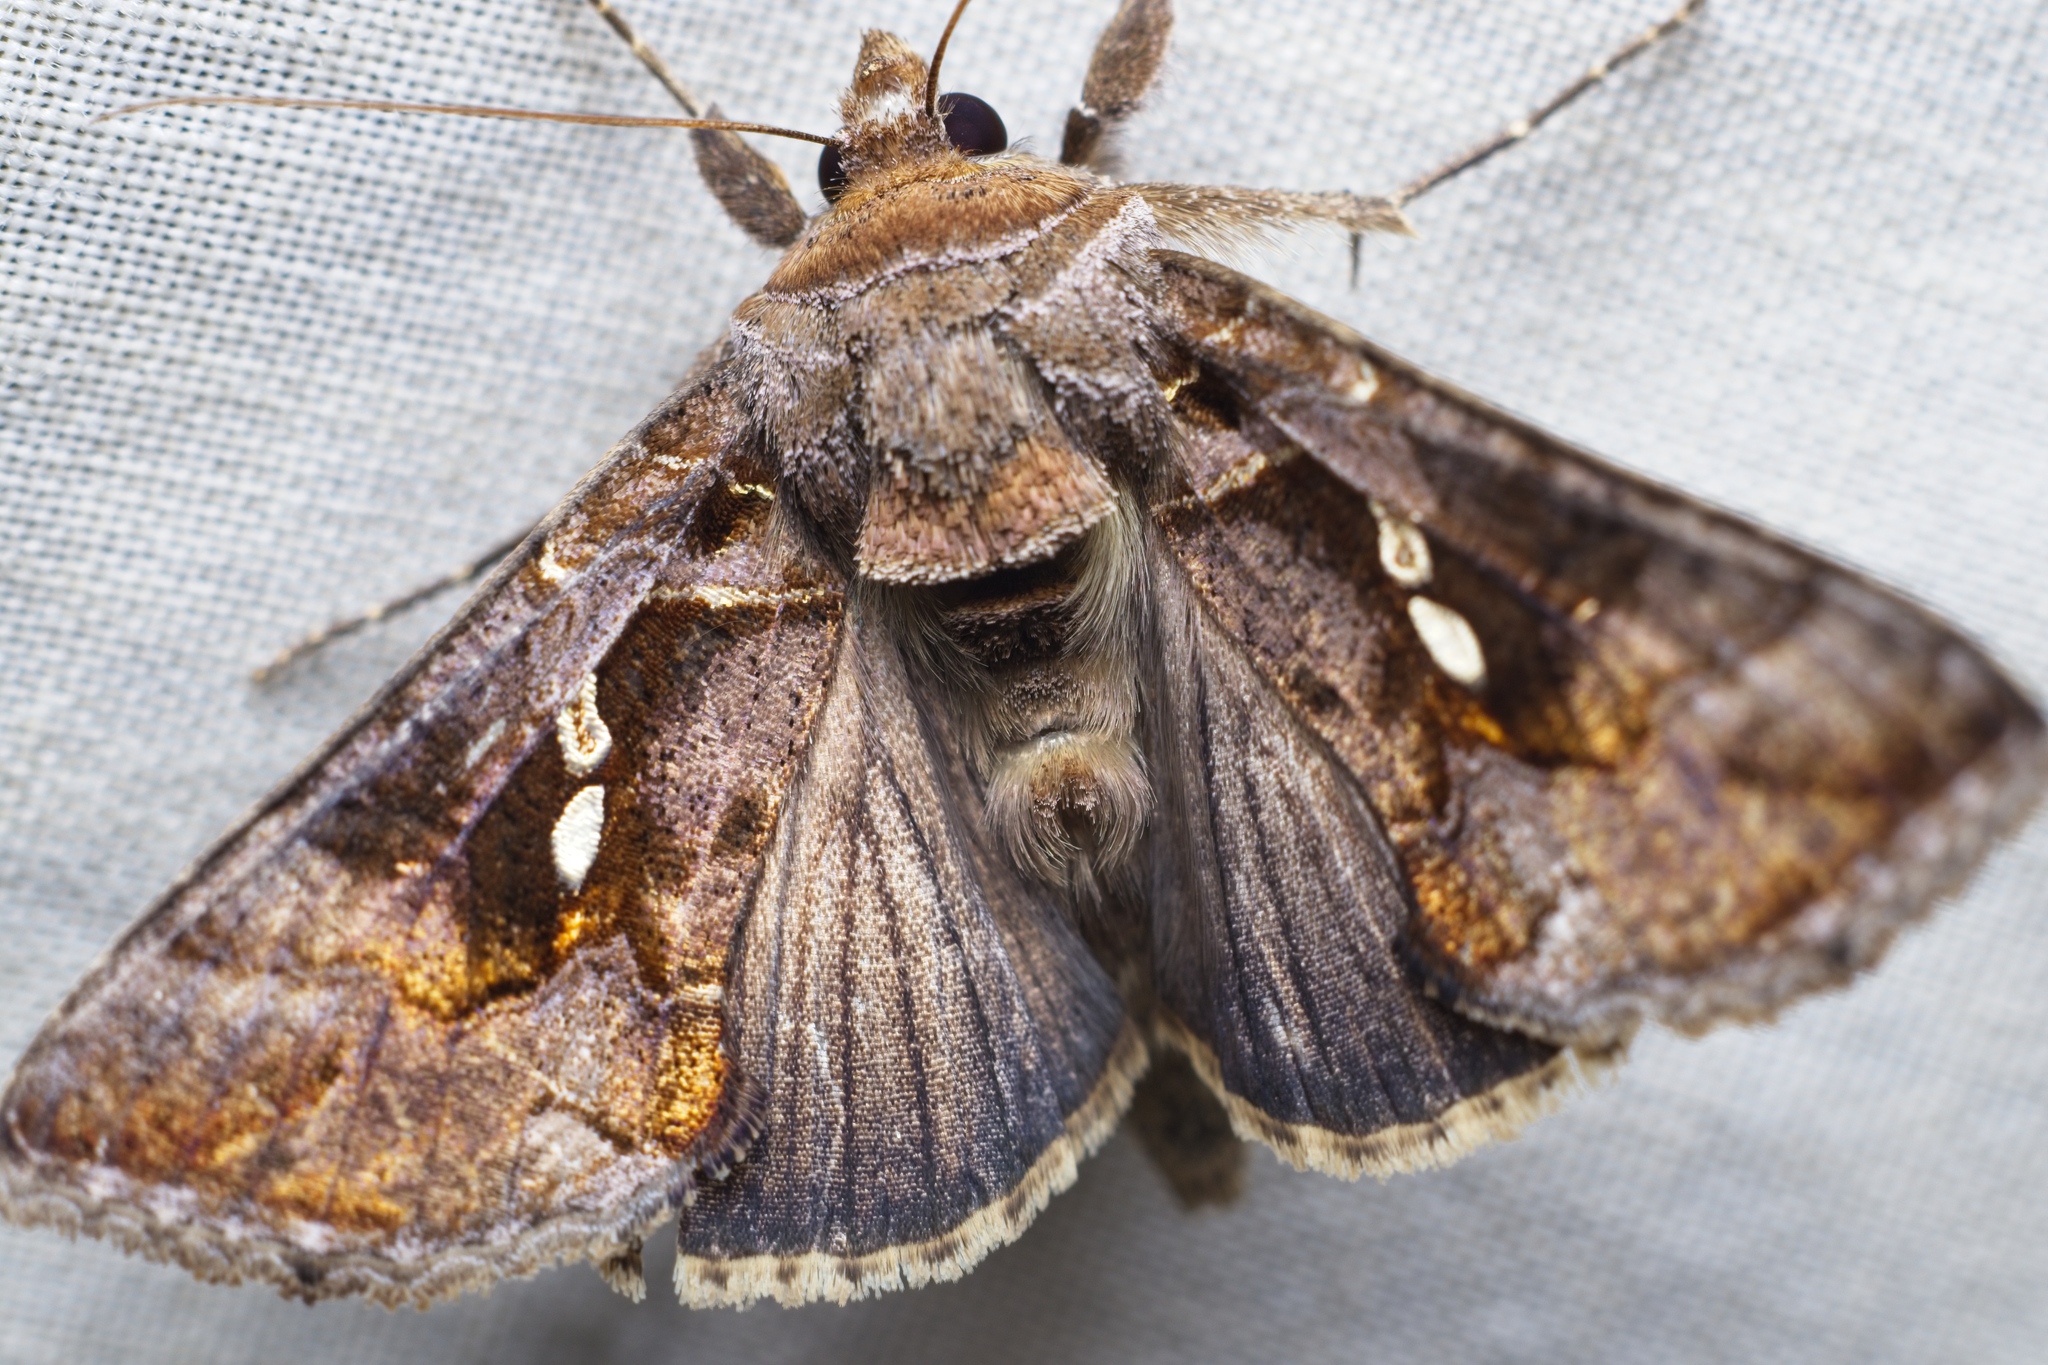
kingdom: Animalia
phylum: Arthropoda
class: Insecta
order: Lepidoptera
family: Noctuidae
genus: Chrysodeixis
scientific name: Chrysodeixis eriosoma
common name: Green garden looper
